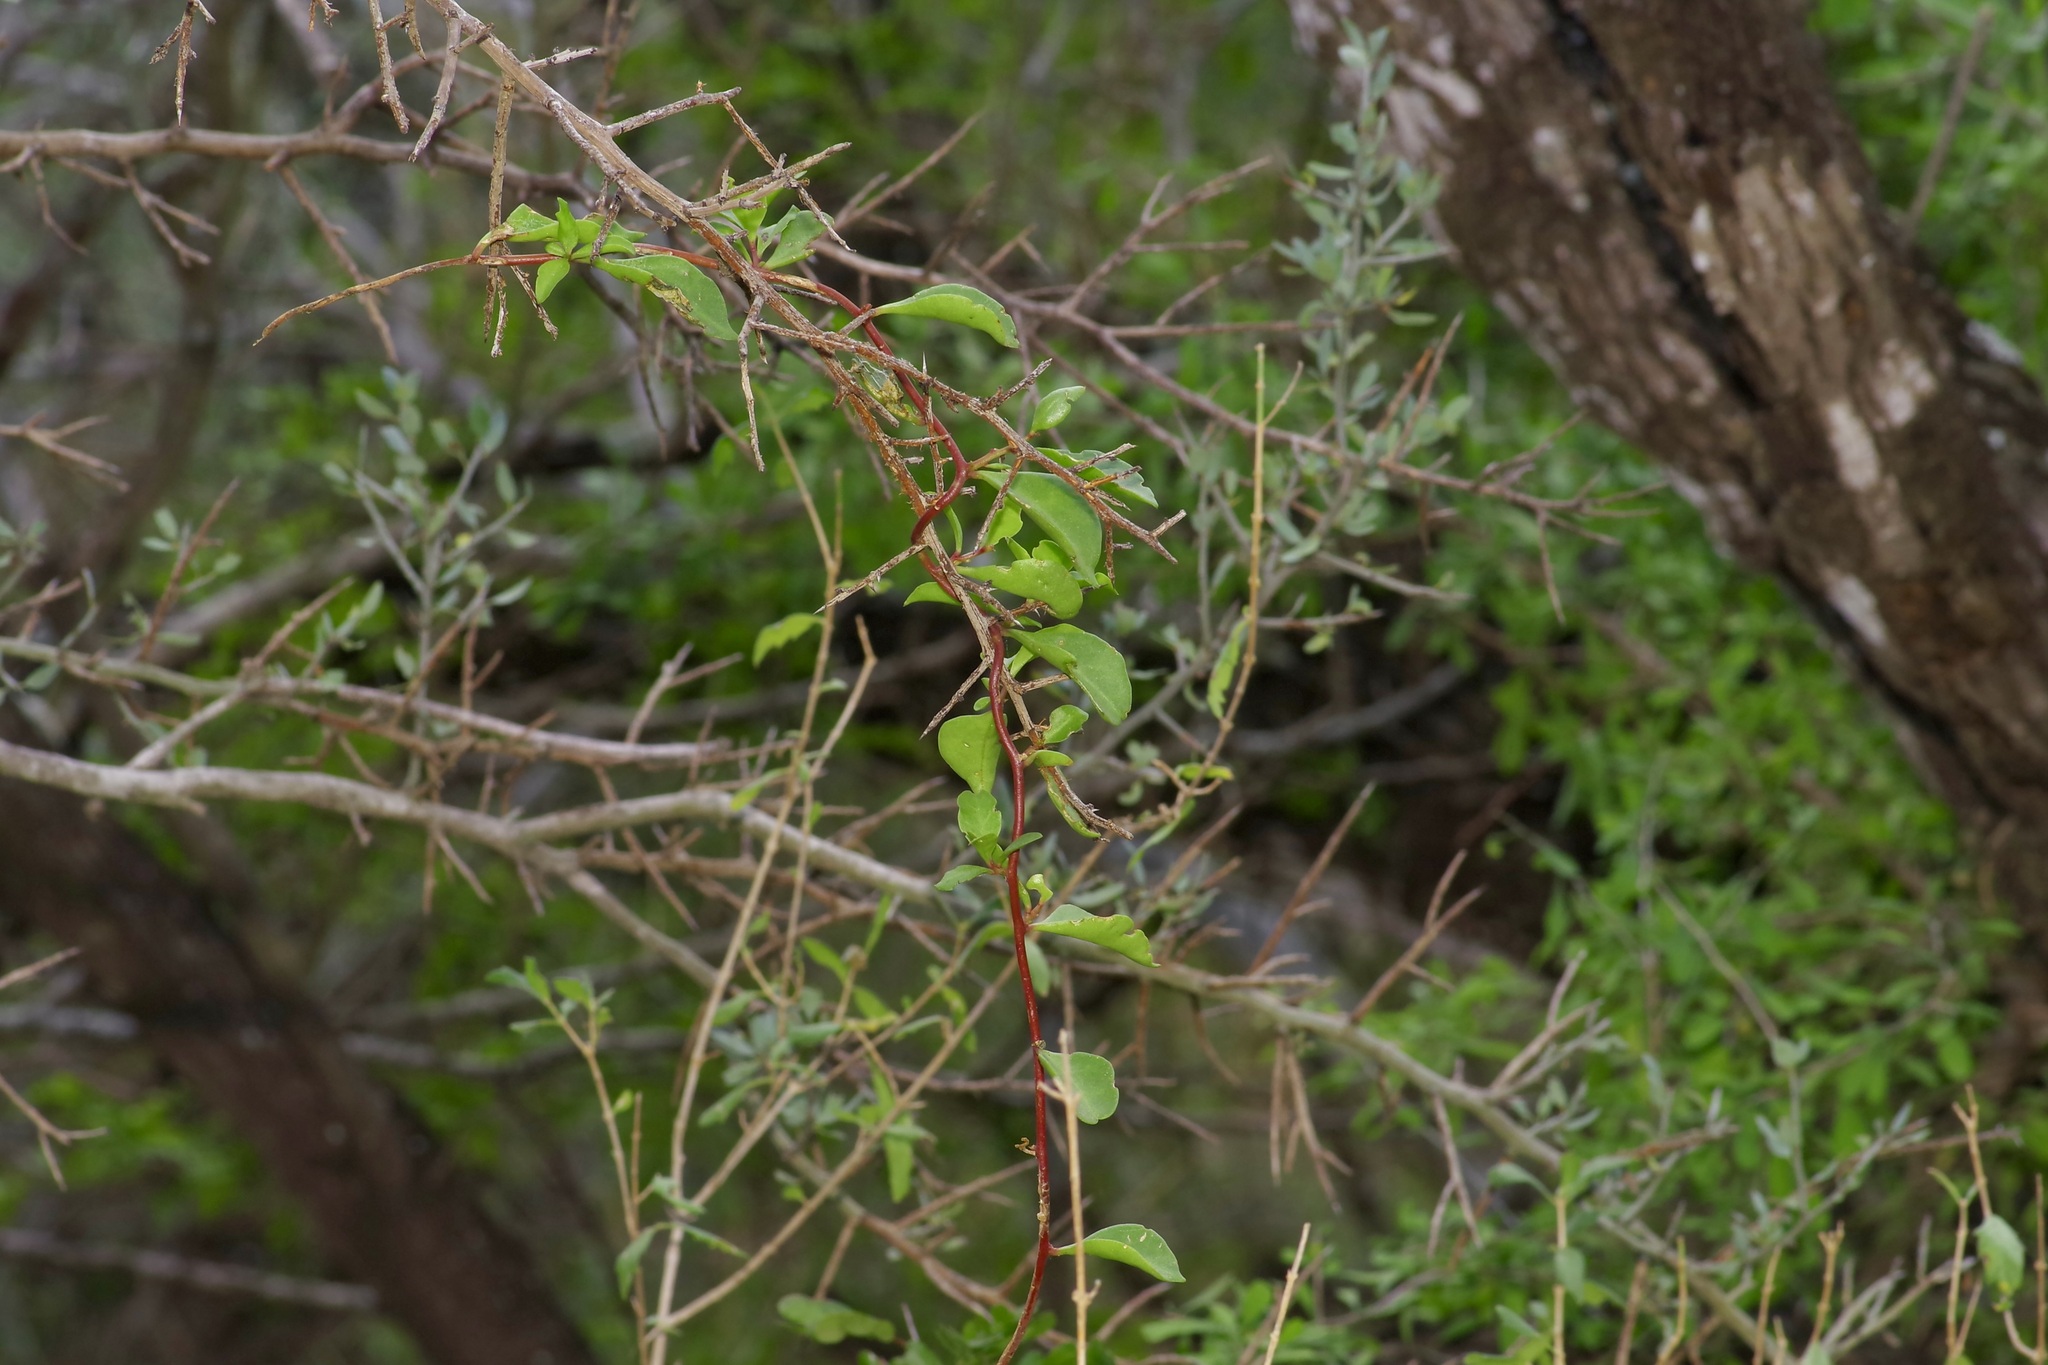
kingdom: Plantae
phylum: Tracheophyta
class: Magnoliopsida
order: Caryophyllales
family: Basellaceae
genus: Anredera
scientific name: Anredera vesicaria
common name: Sacasile
